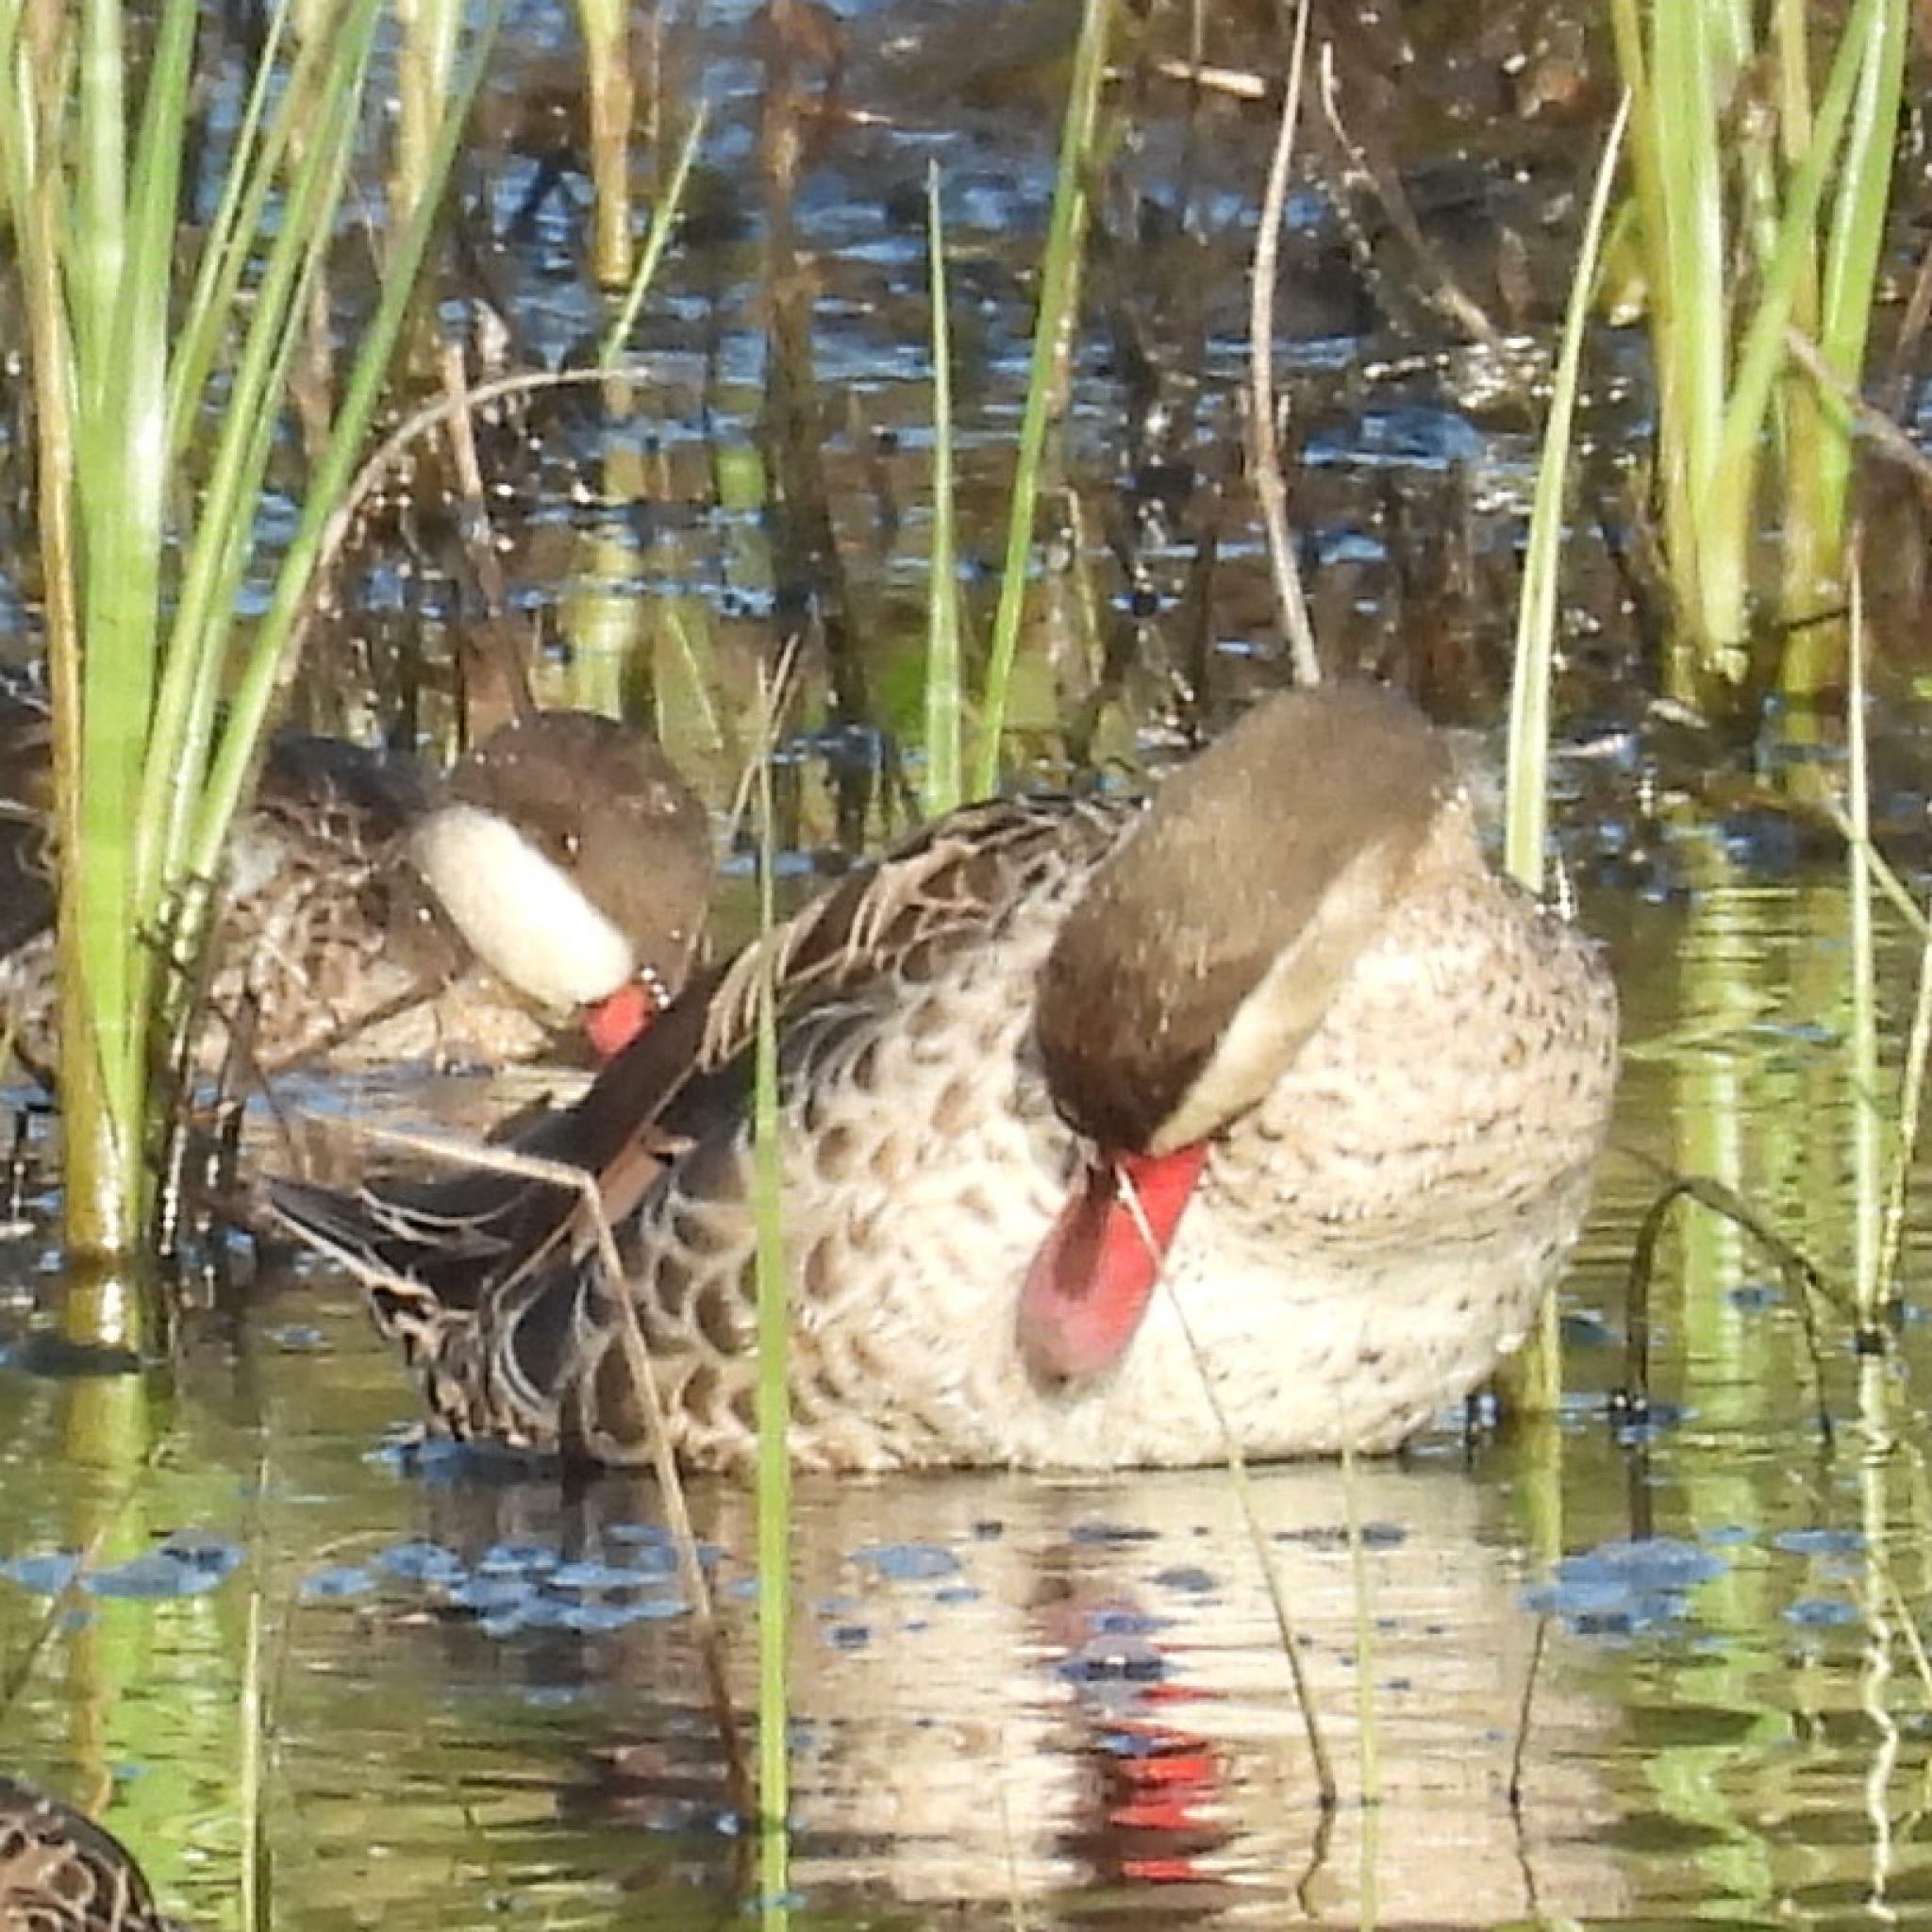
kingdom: Animalia
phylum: Chordata
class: Aves
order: Anseriformes
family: Anatidae
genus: Anas
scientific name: Anas erythrorhyncha
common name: Red-billed teal
